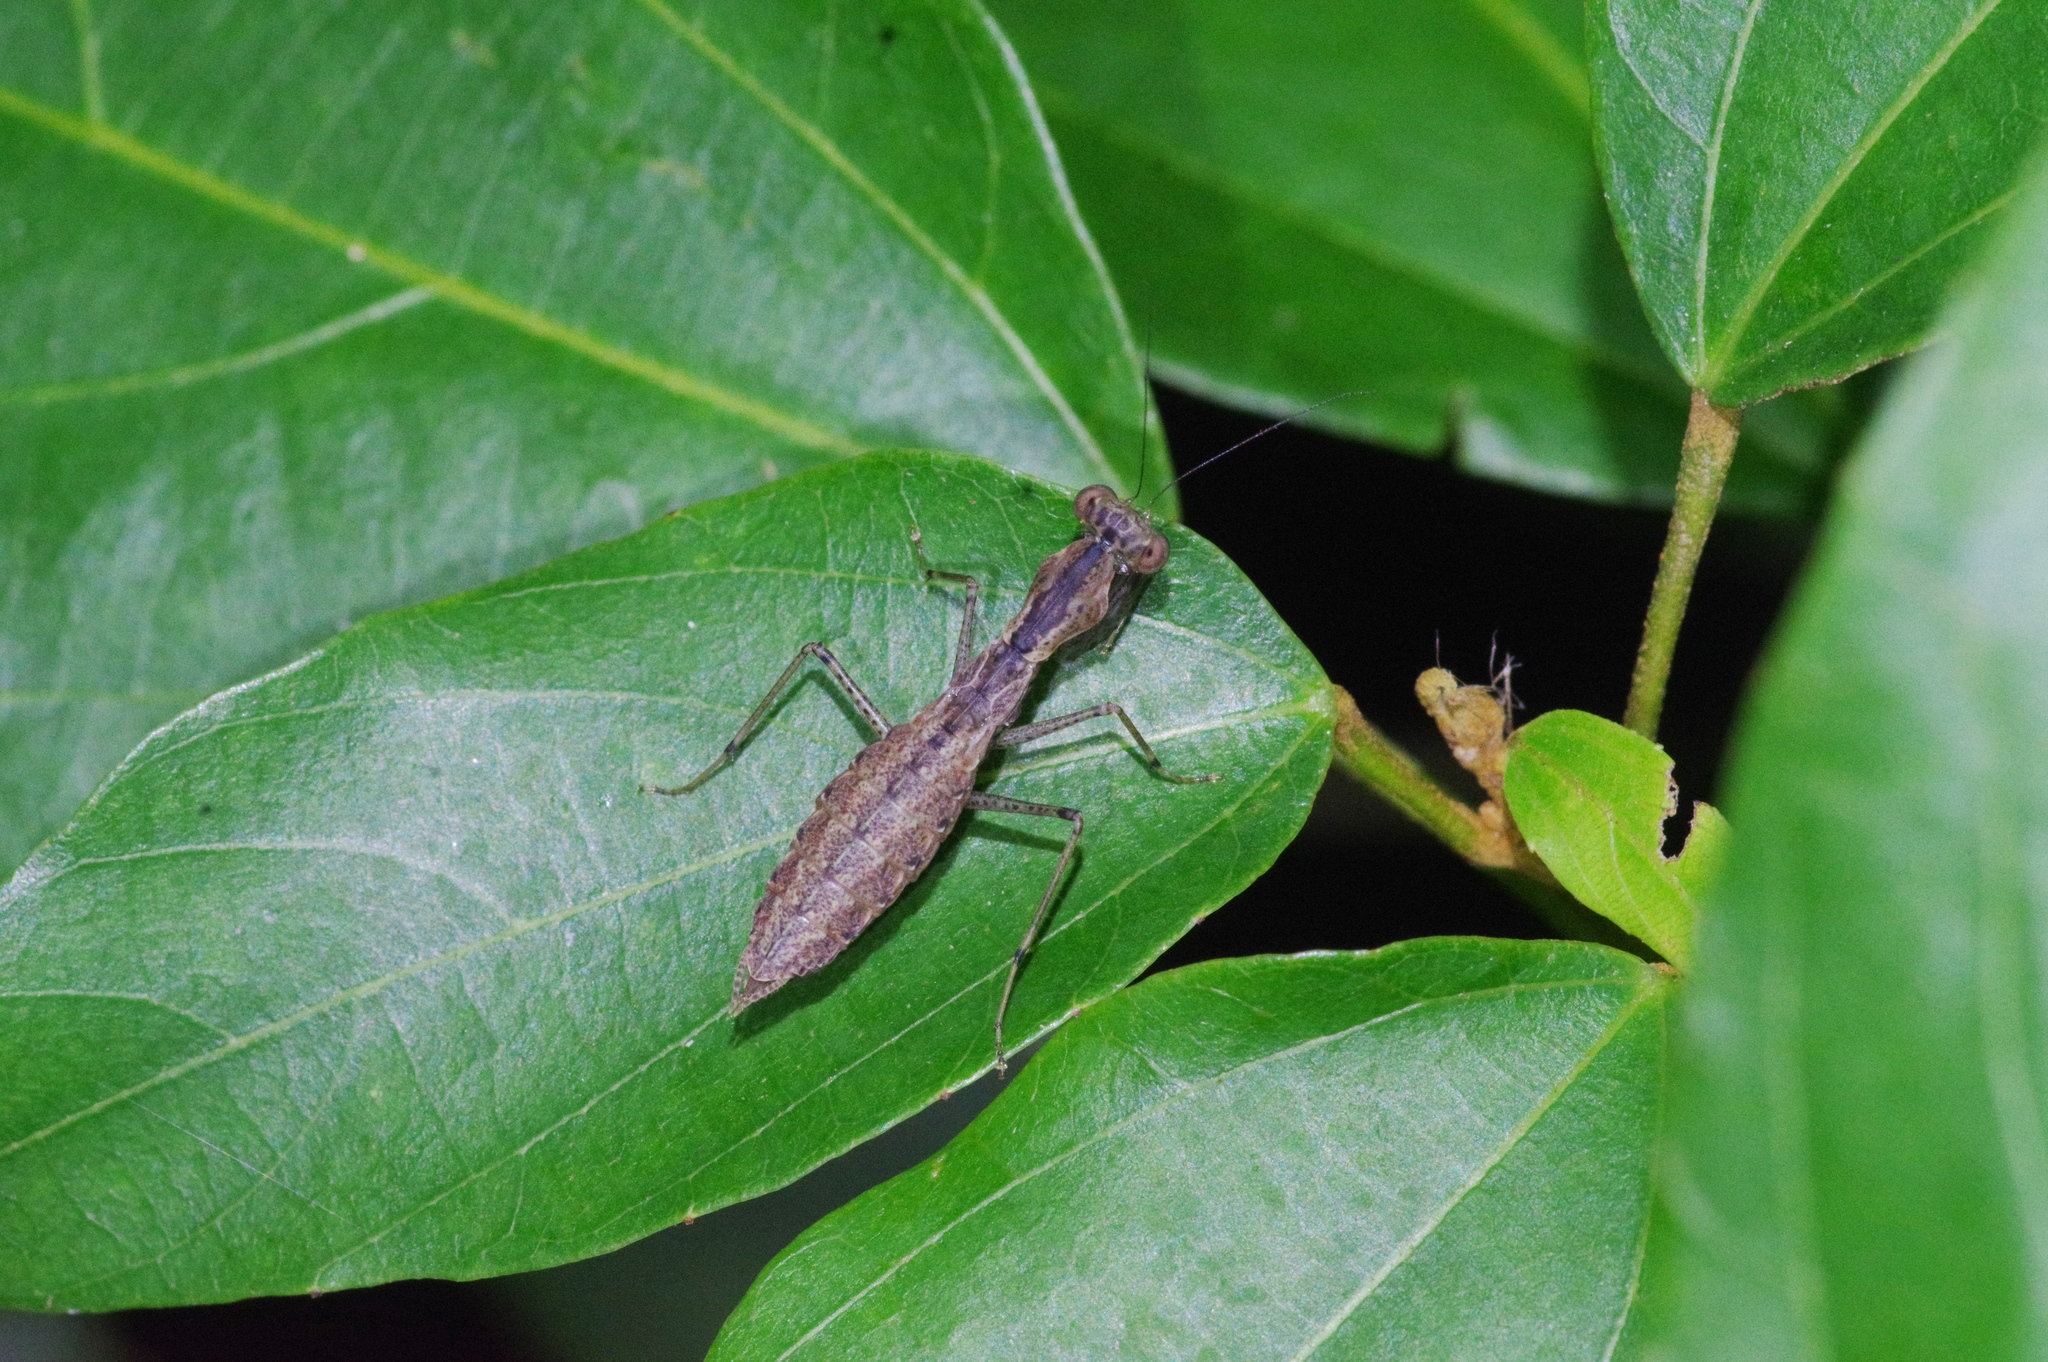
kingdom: Animalia
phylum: Arthropoda
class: Insecta
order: Mantodea
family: Gonypetidae
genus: Amantis
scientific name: Amantis nawai
